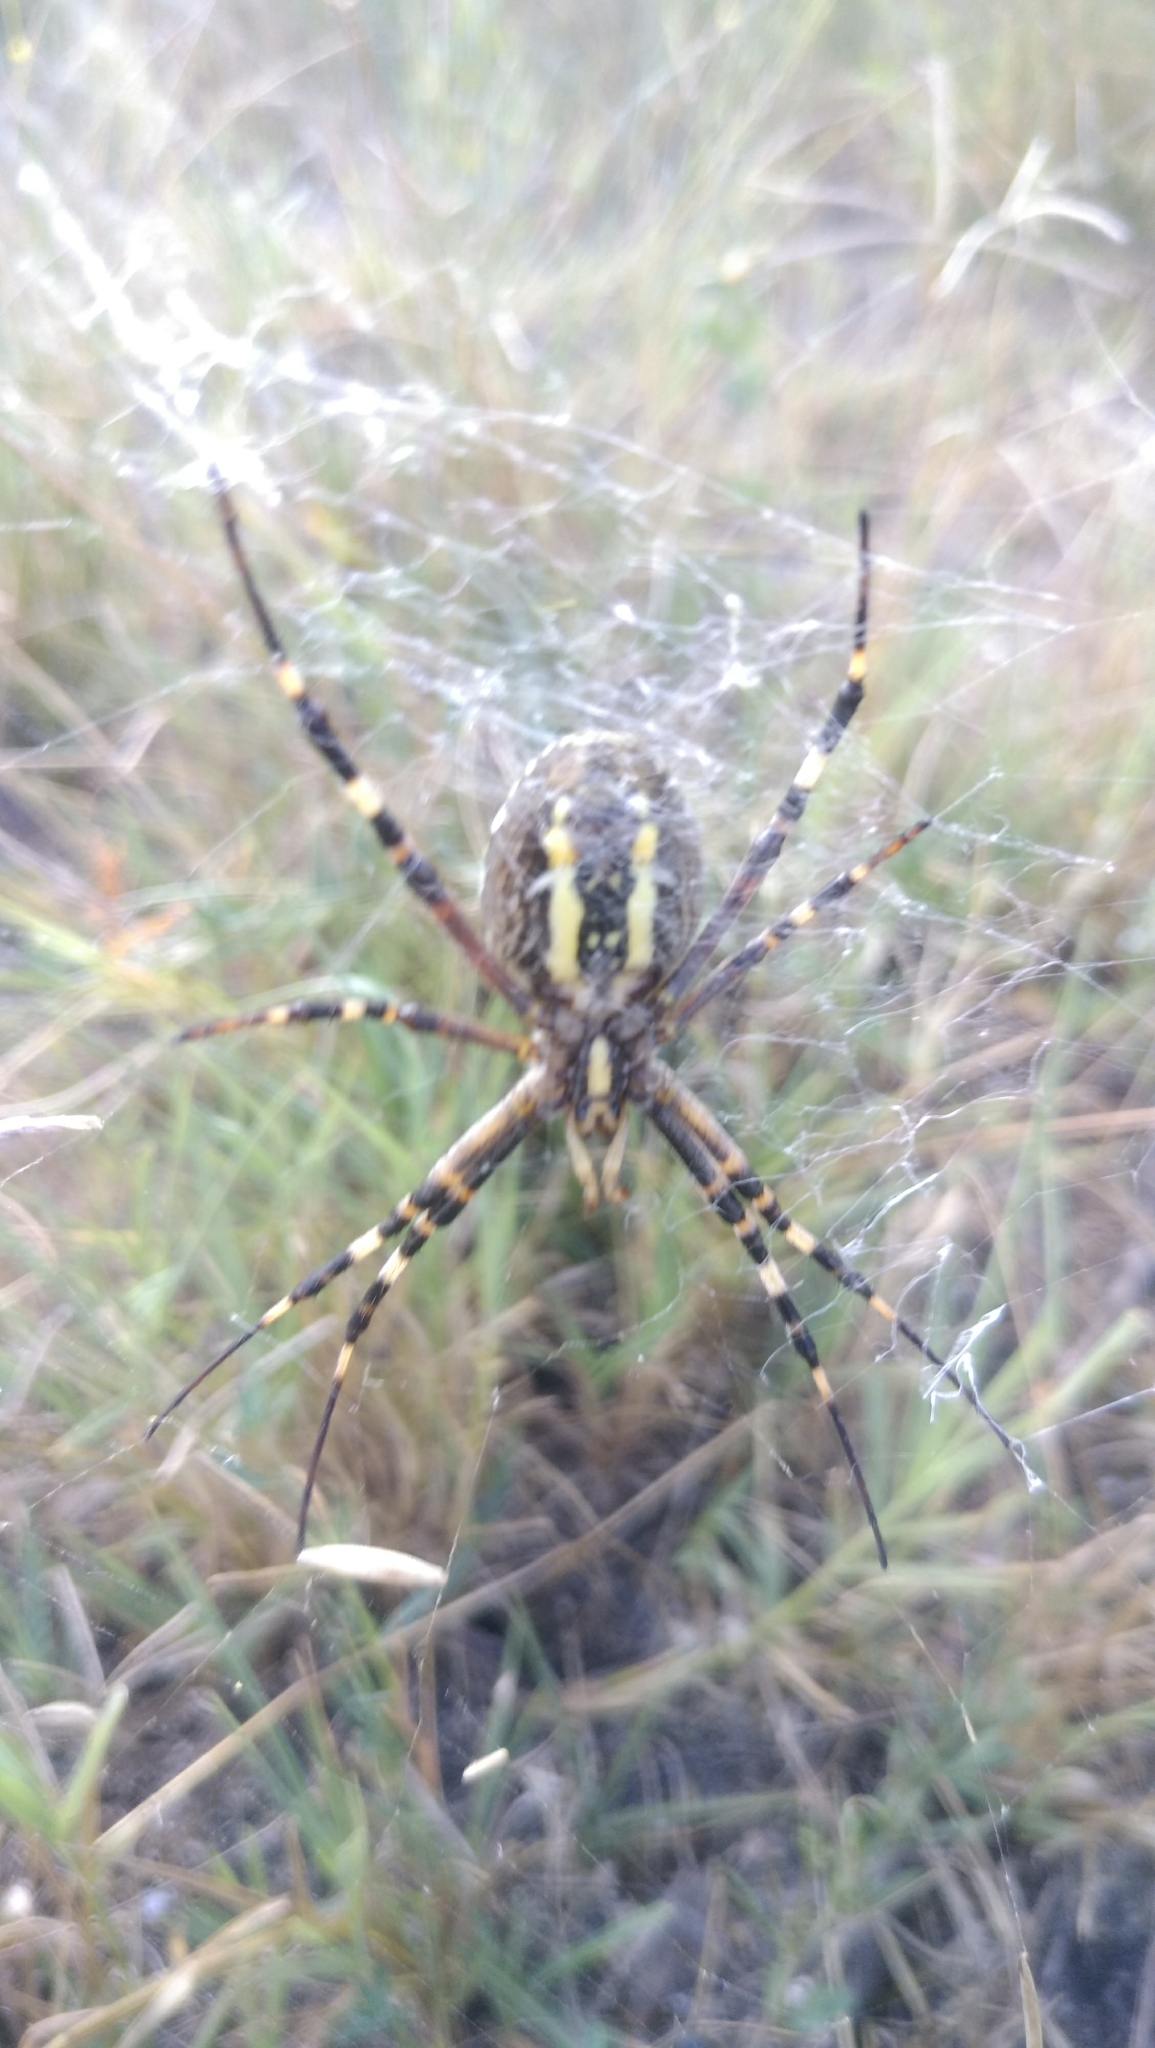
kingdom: Animalia
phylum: Arthropoda
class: Arachnida
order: Araneae
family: Araneidae
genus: Argiope
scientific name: Argiope bruennichi
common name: Wasp spider
